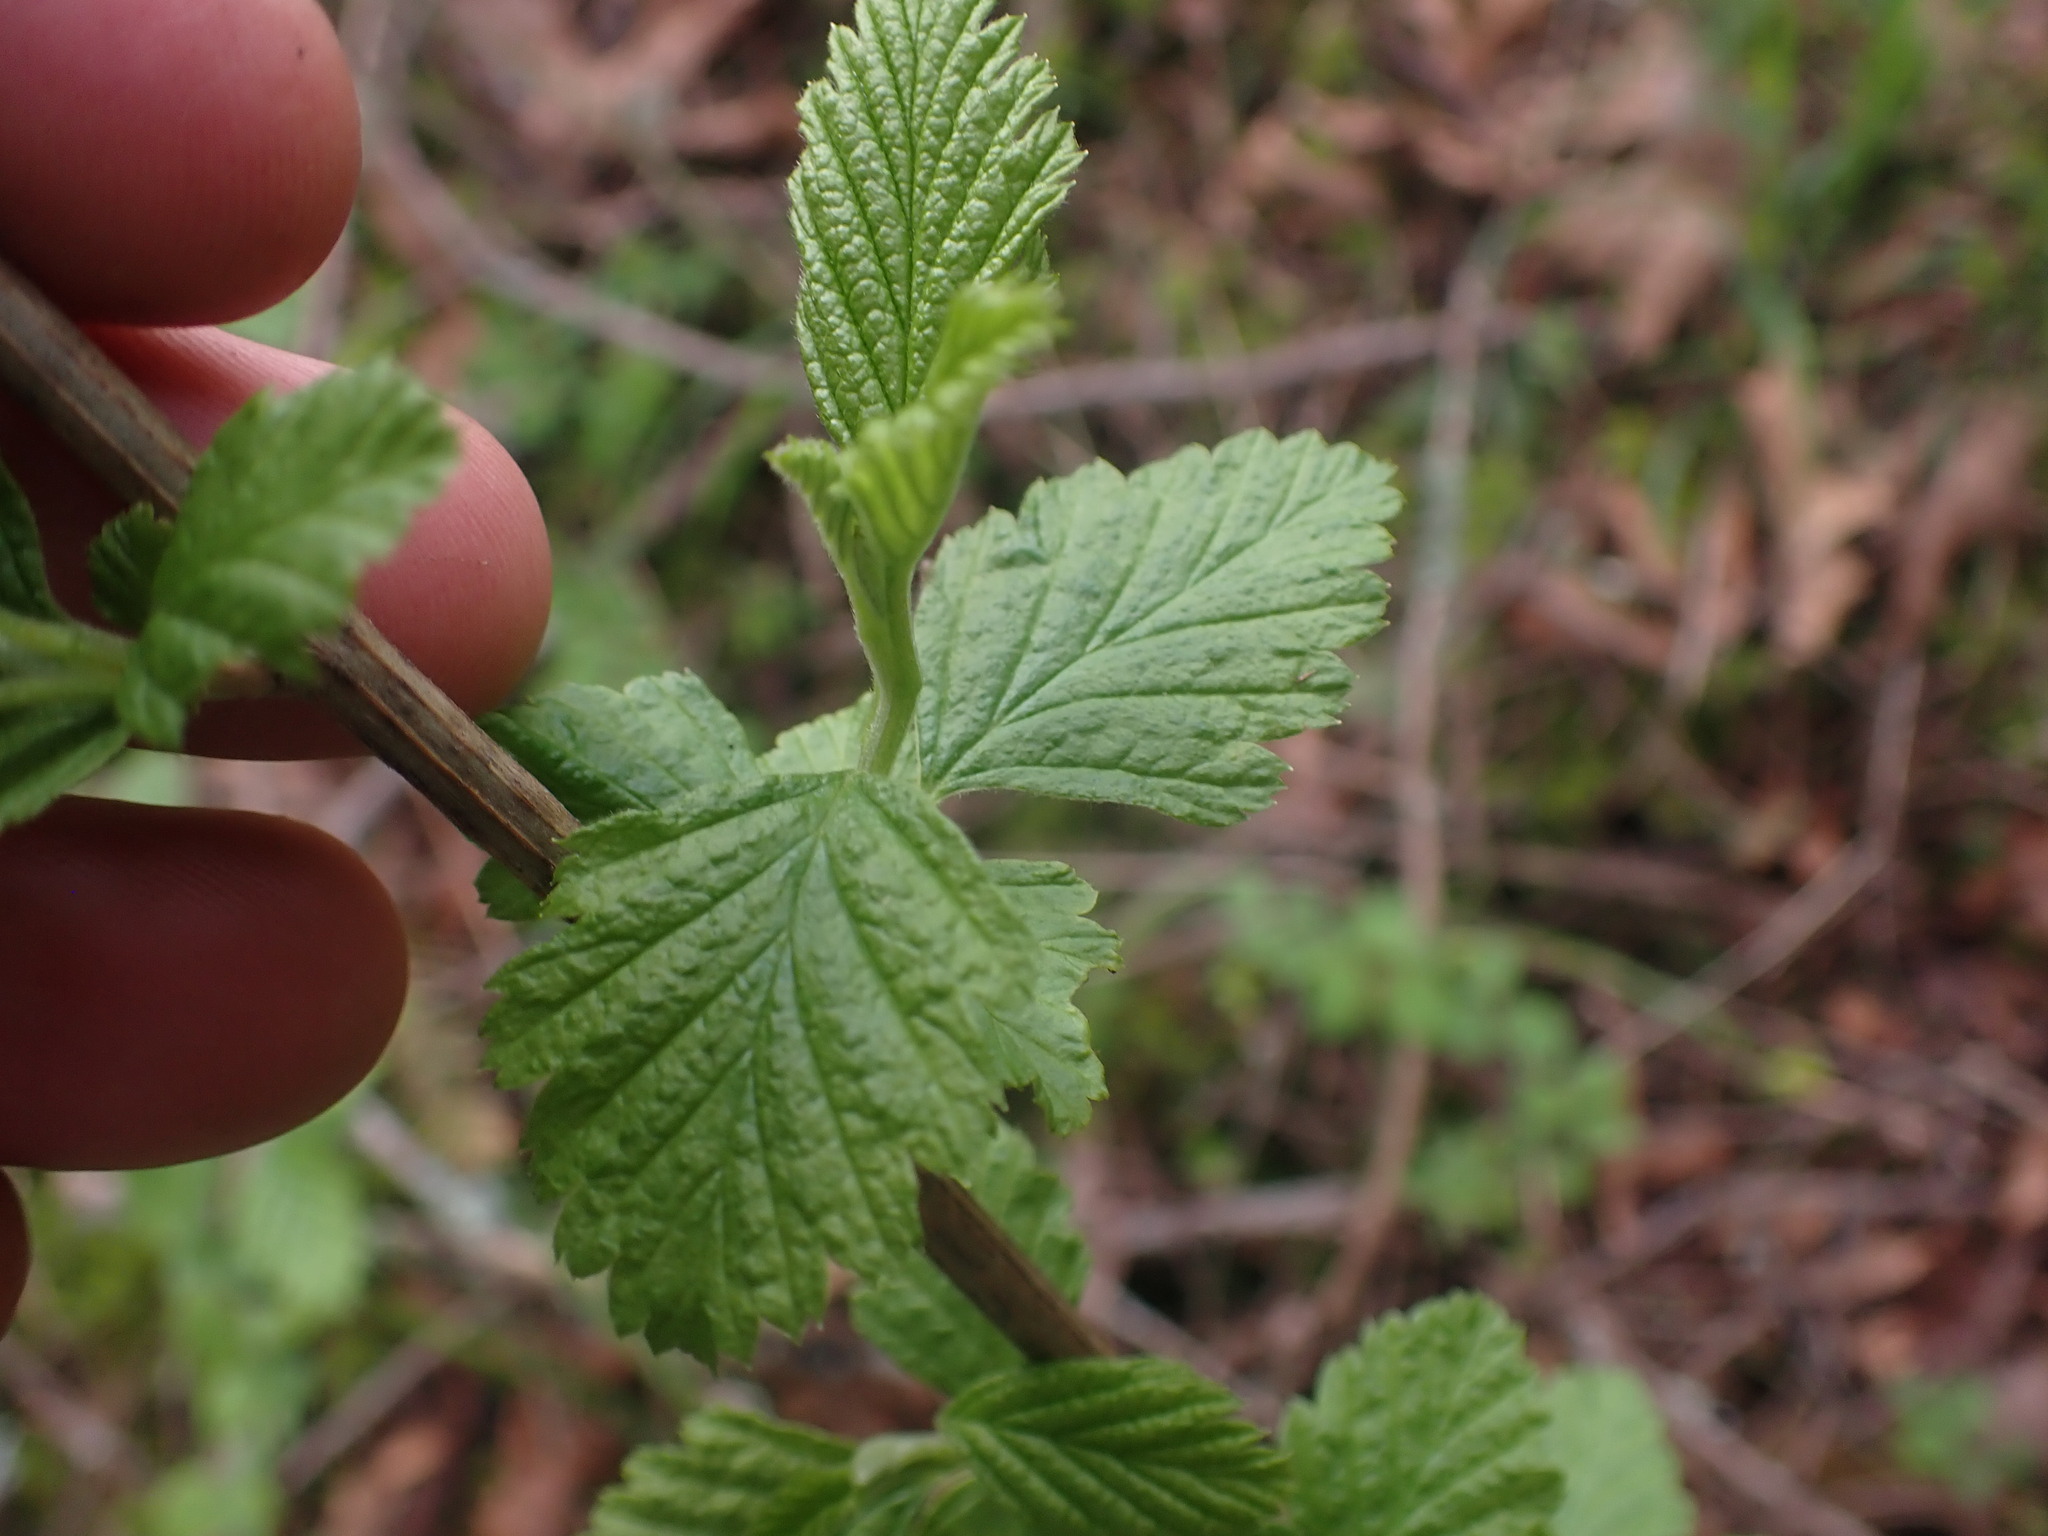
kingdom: Plantae
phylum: Tracheophyta
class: Magnoliopsida
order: Rosales
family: Rosaceae
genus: Holodiscus
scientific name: Holodiscus discolor
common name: Oceanspray
